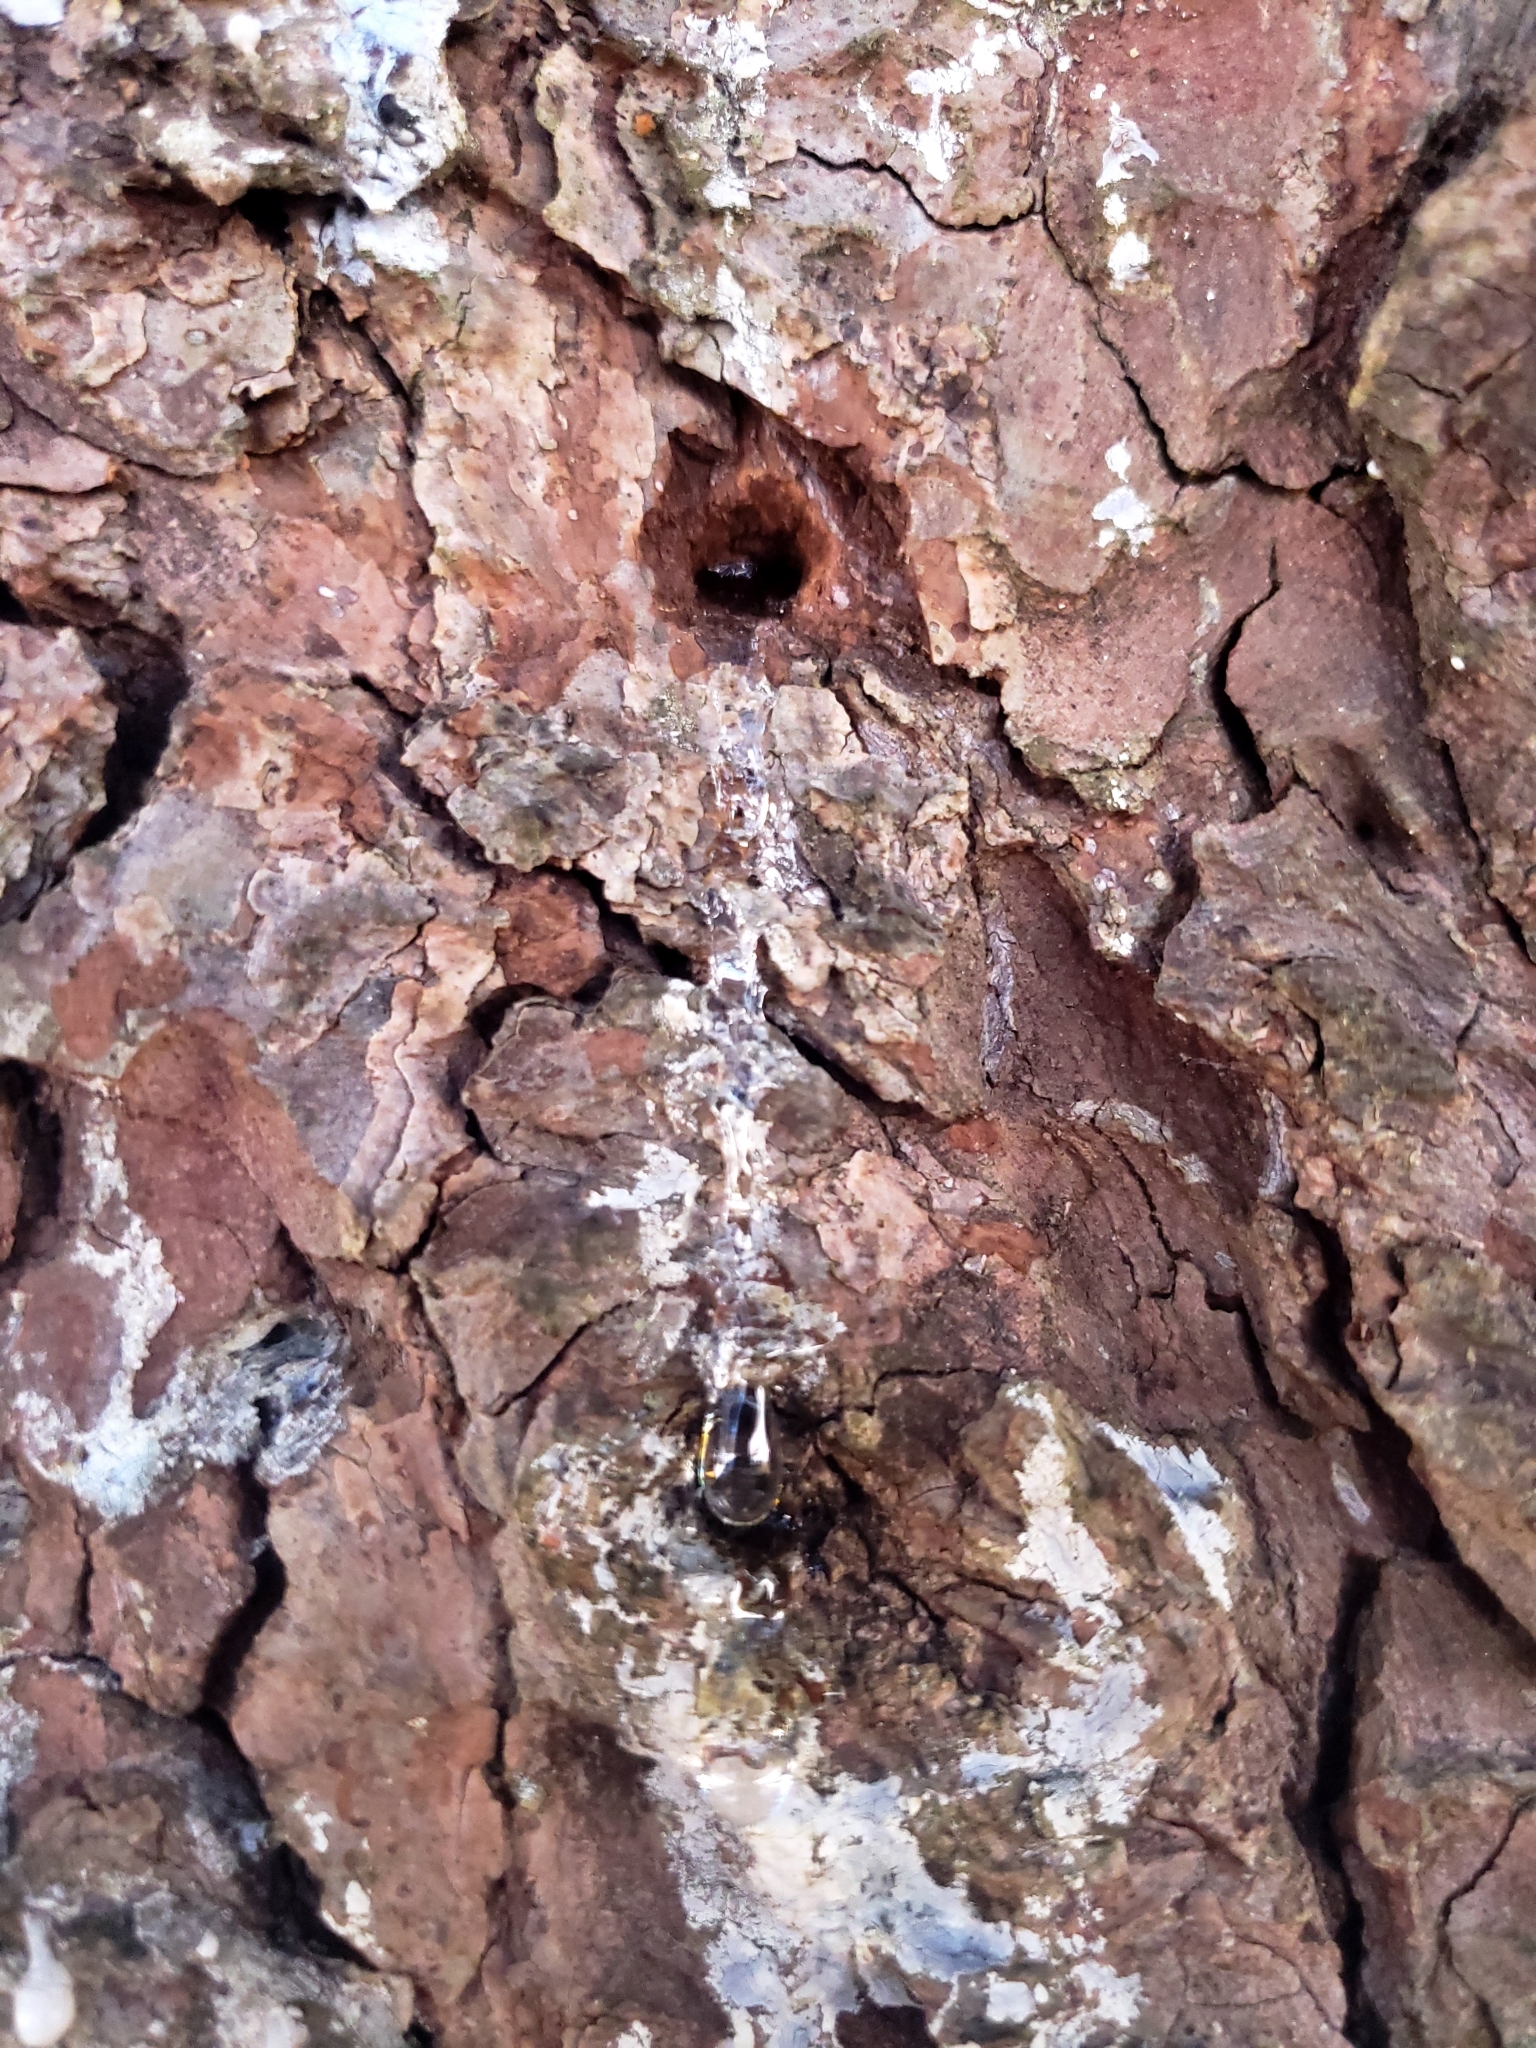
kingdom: Plantae
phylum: Tracheophyta
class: Pinopsida
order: Pinales
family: Pinaceae
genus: Picea
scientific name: Picea abies
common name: Norway spruce
